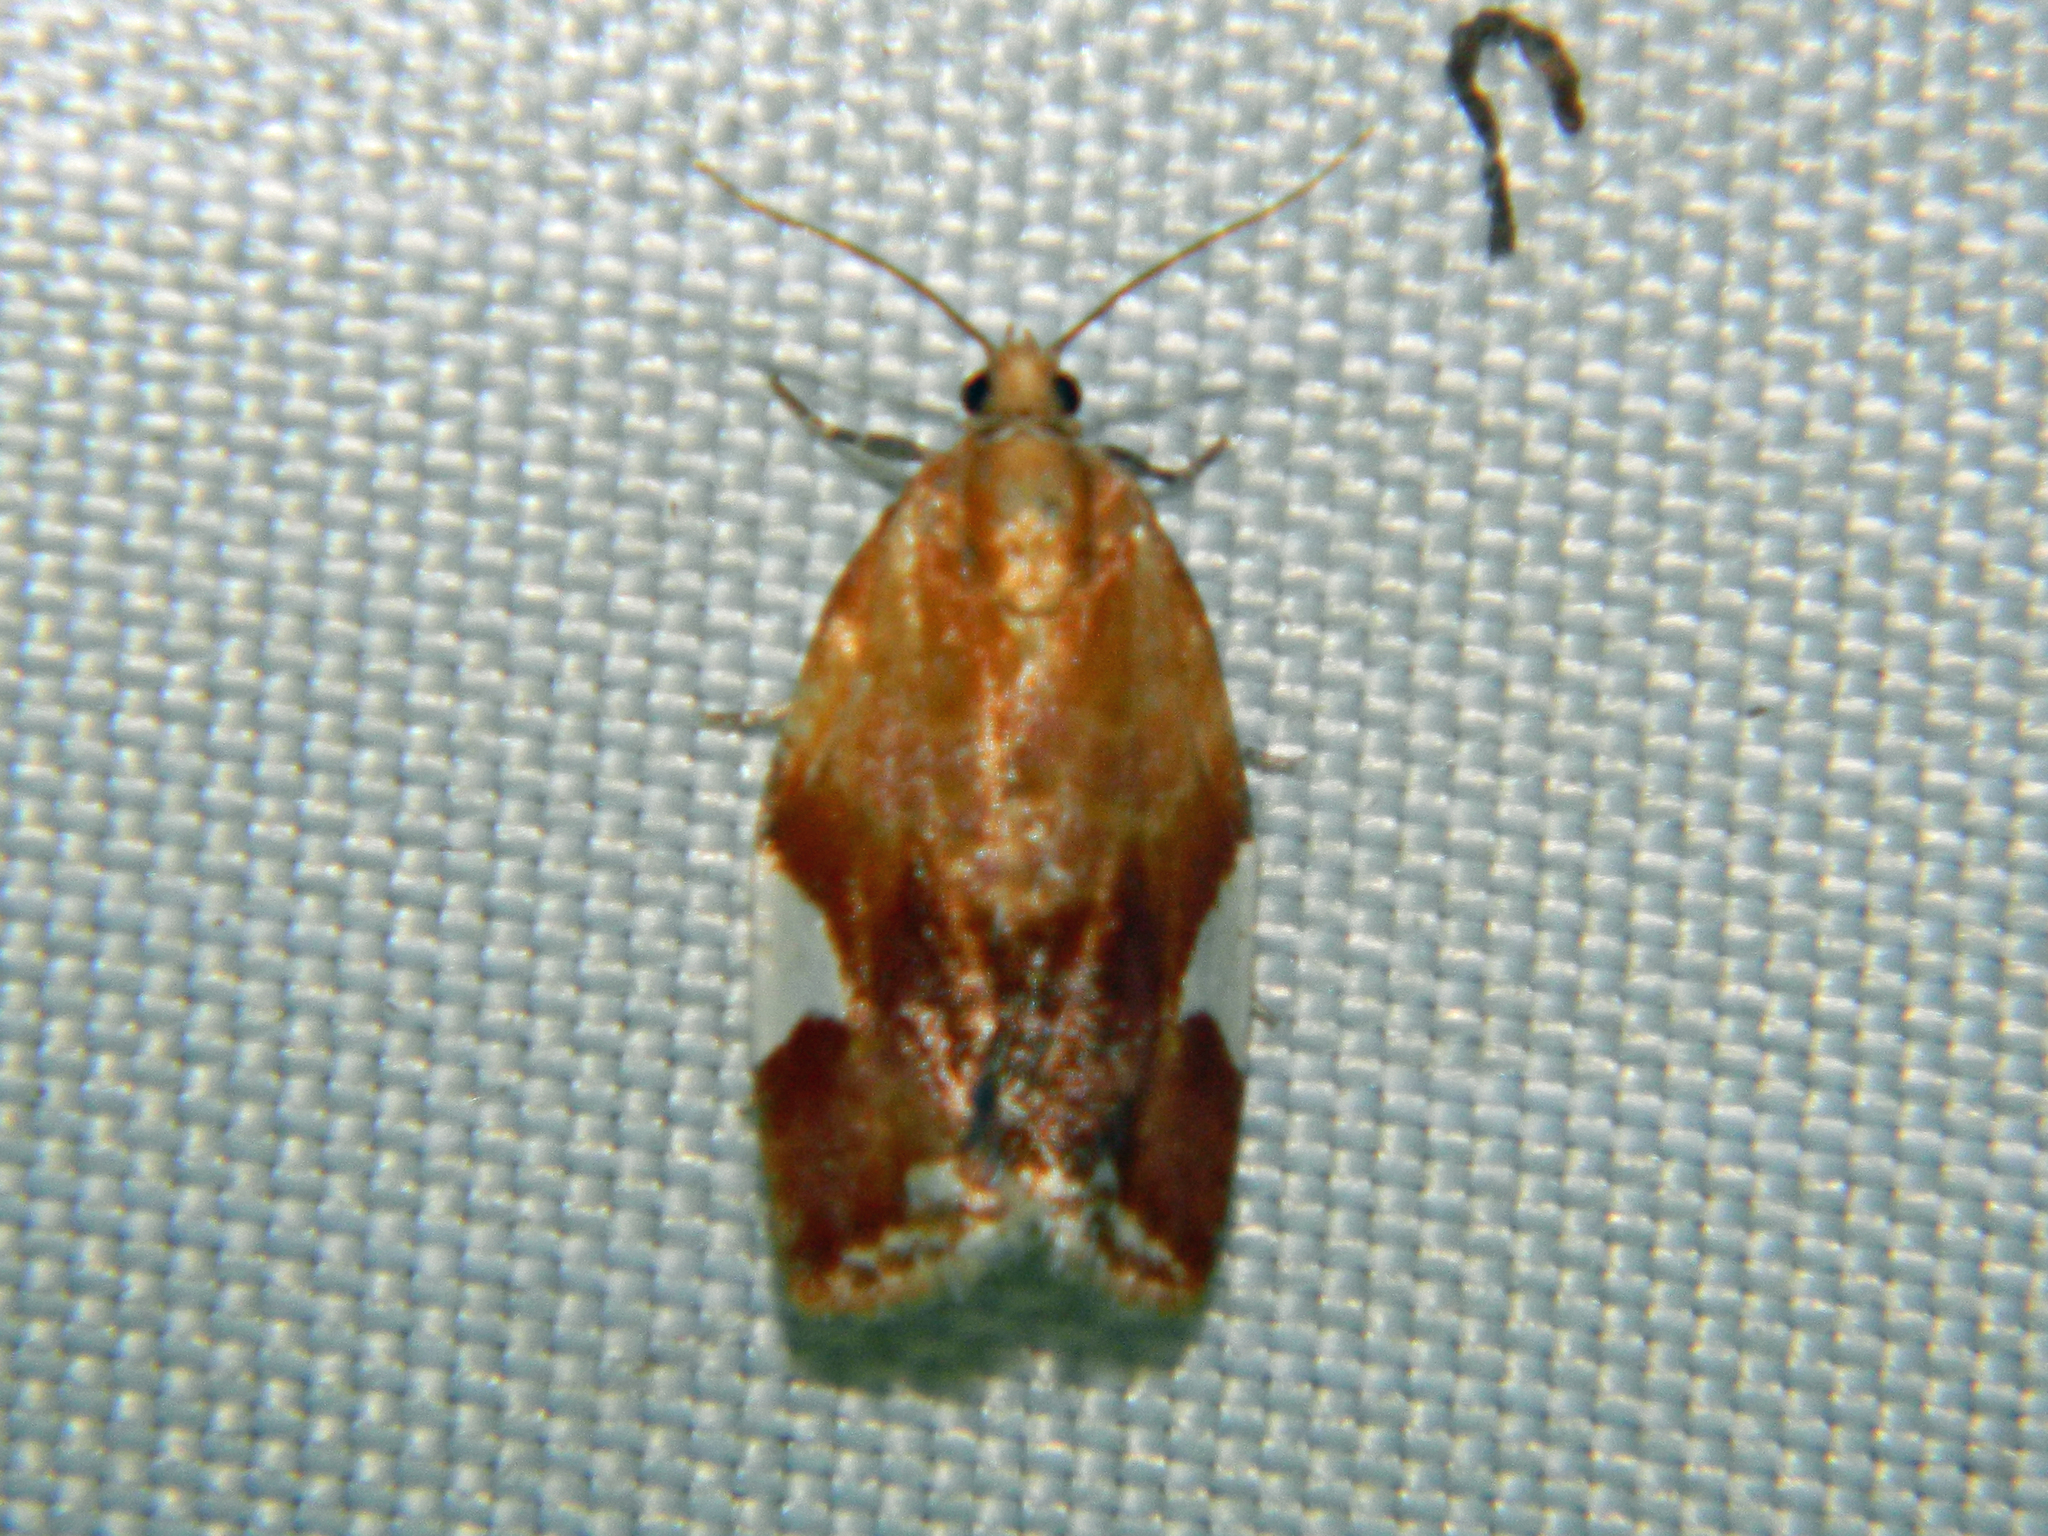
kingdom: Animalia
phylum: Arthropoda
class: Insecta
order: Lepidoptera
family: Tortricidae
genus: Clepsis
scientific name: Clepsis persicana
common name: White triangle tortrix
